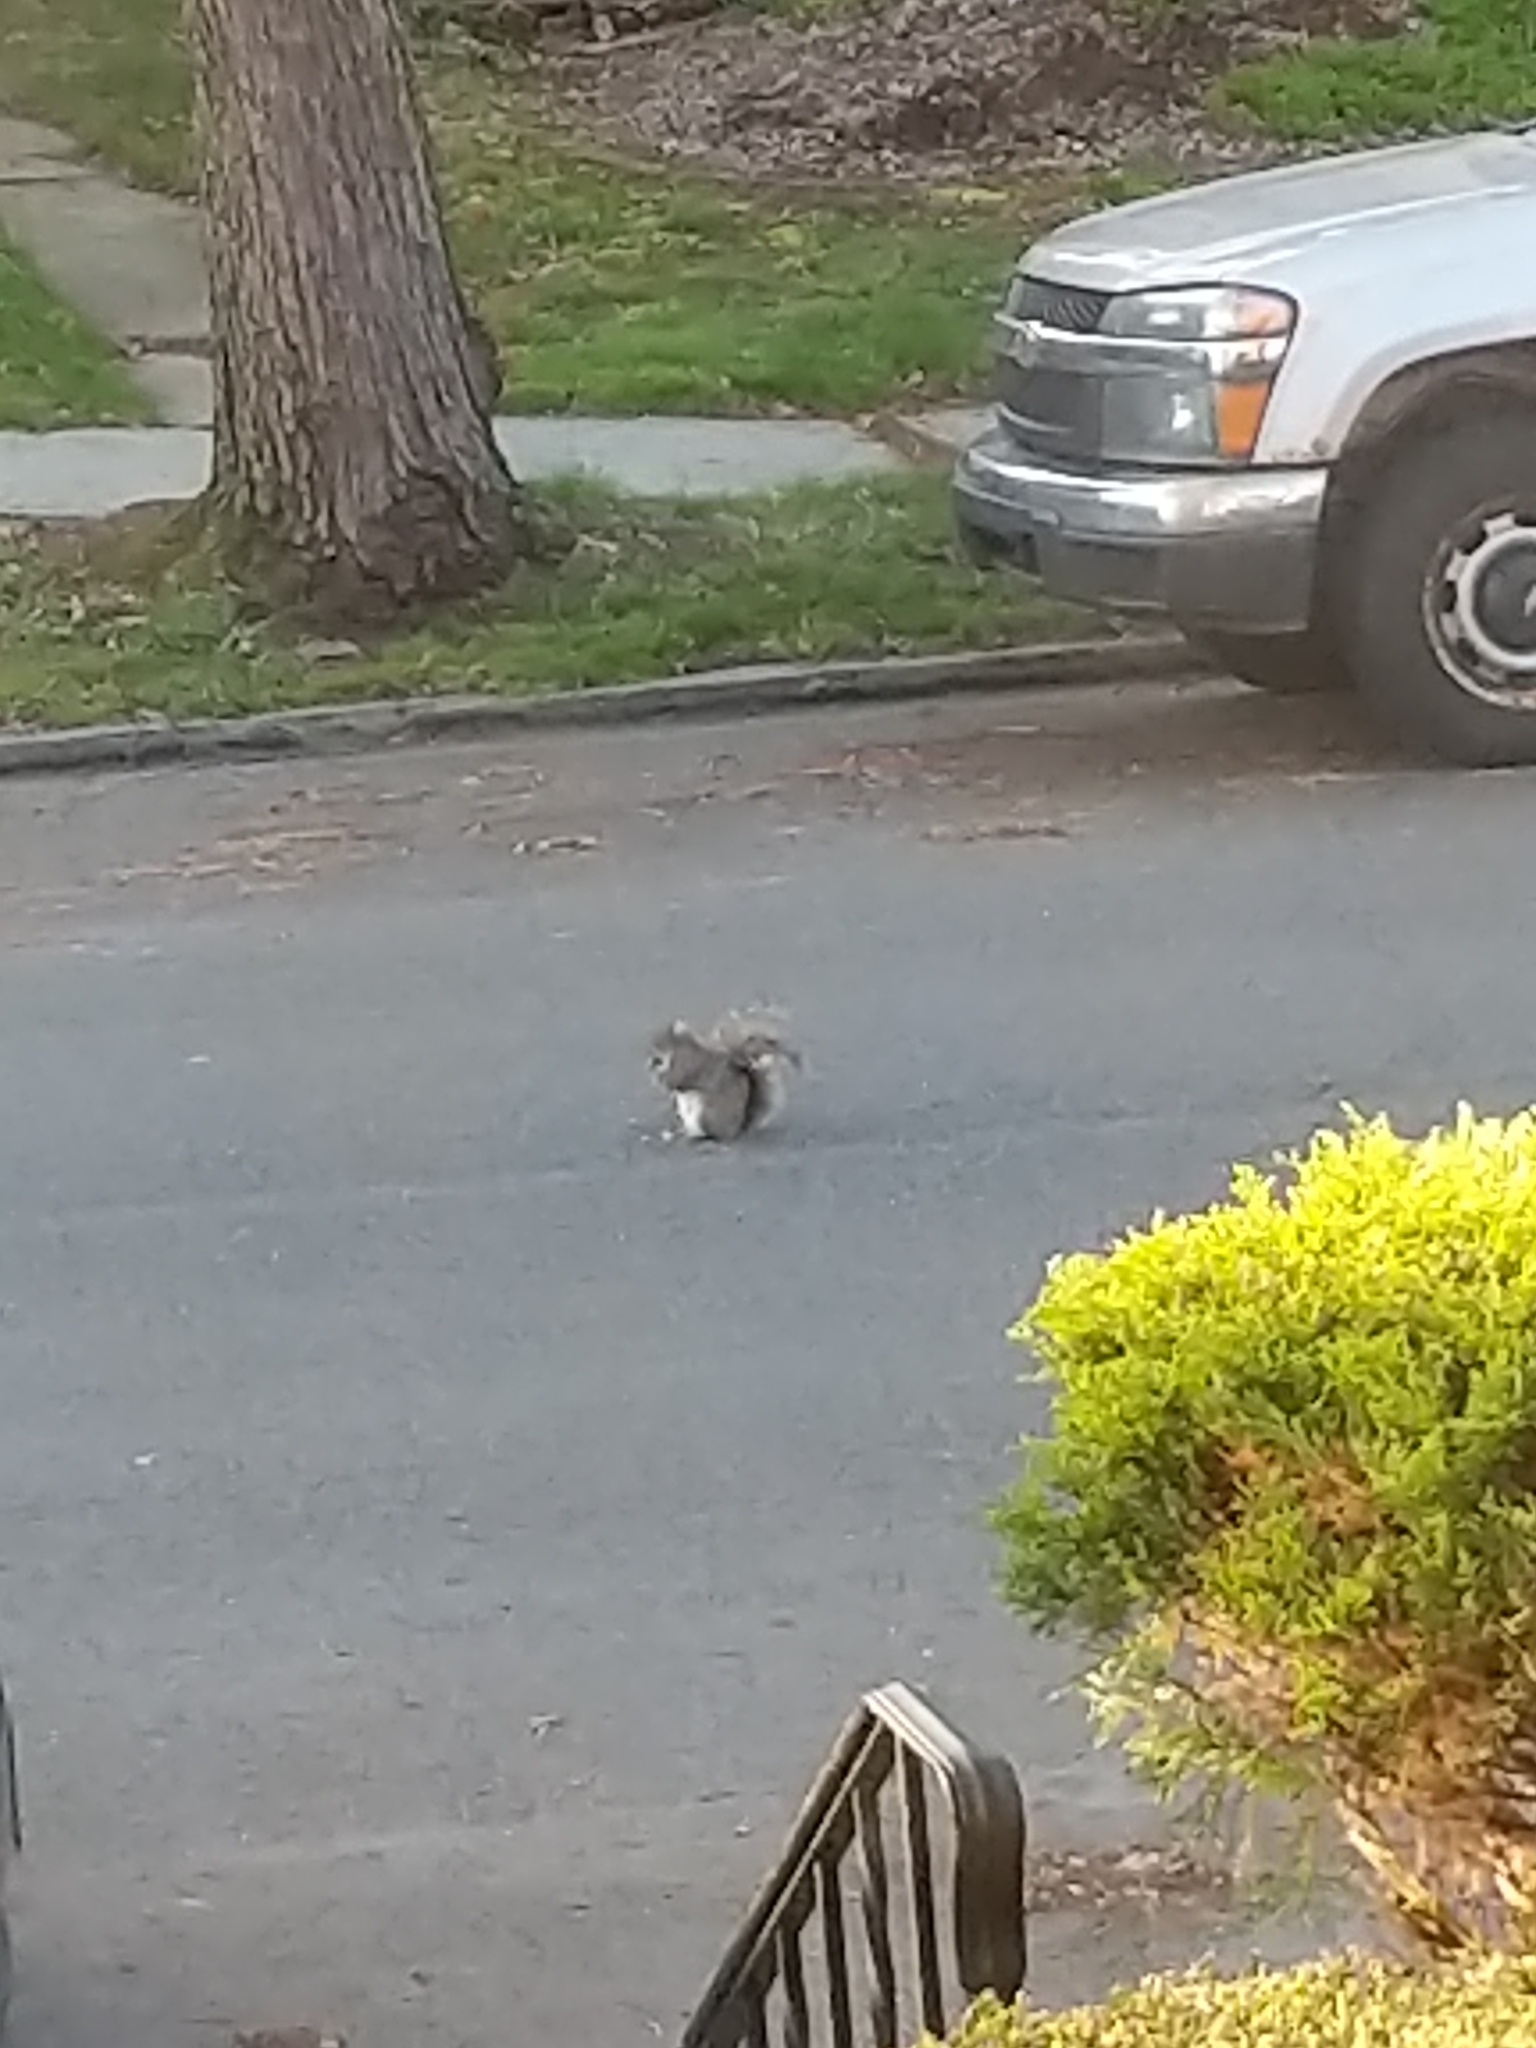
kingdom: Animalia
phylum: Chordata
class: Mammalia
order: Rodentia
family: Sciuridae
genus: Sciurus
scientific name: Sciurus carolinensis
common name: Eastern gray squirrel
